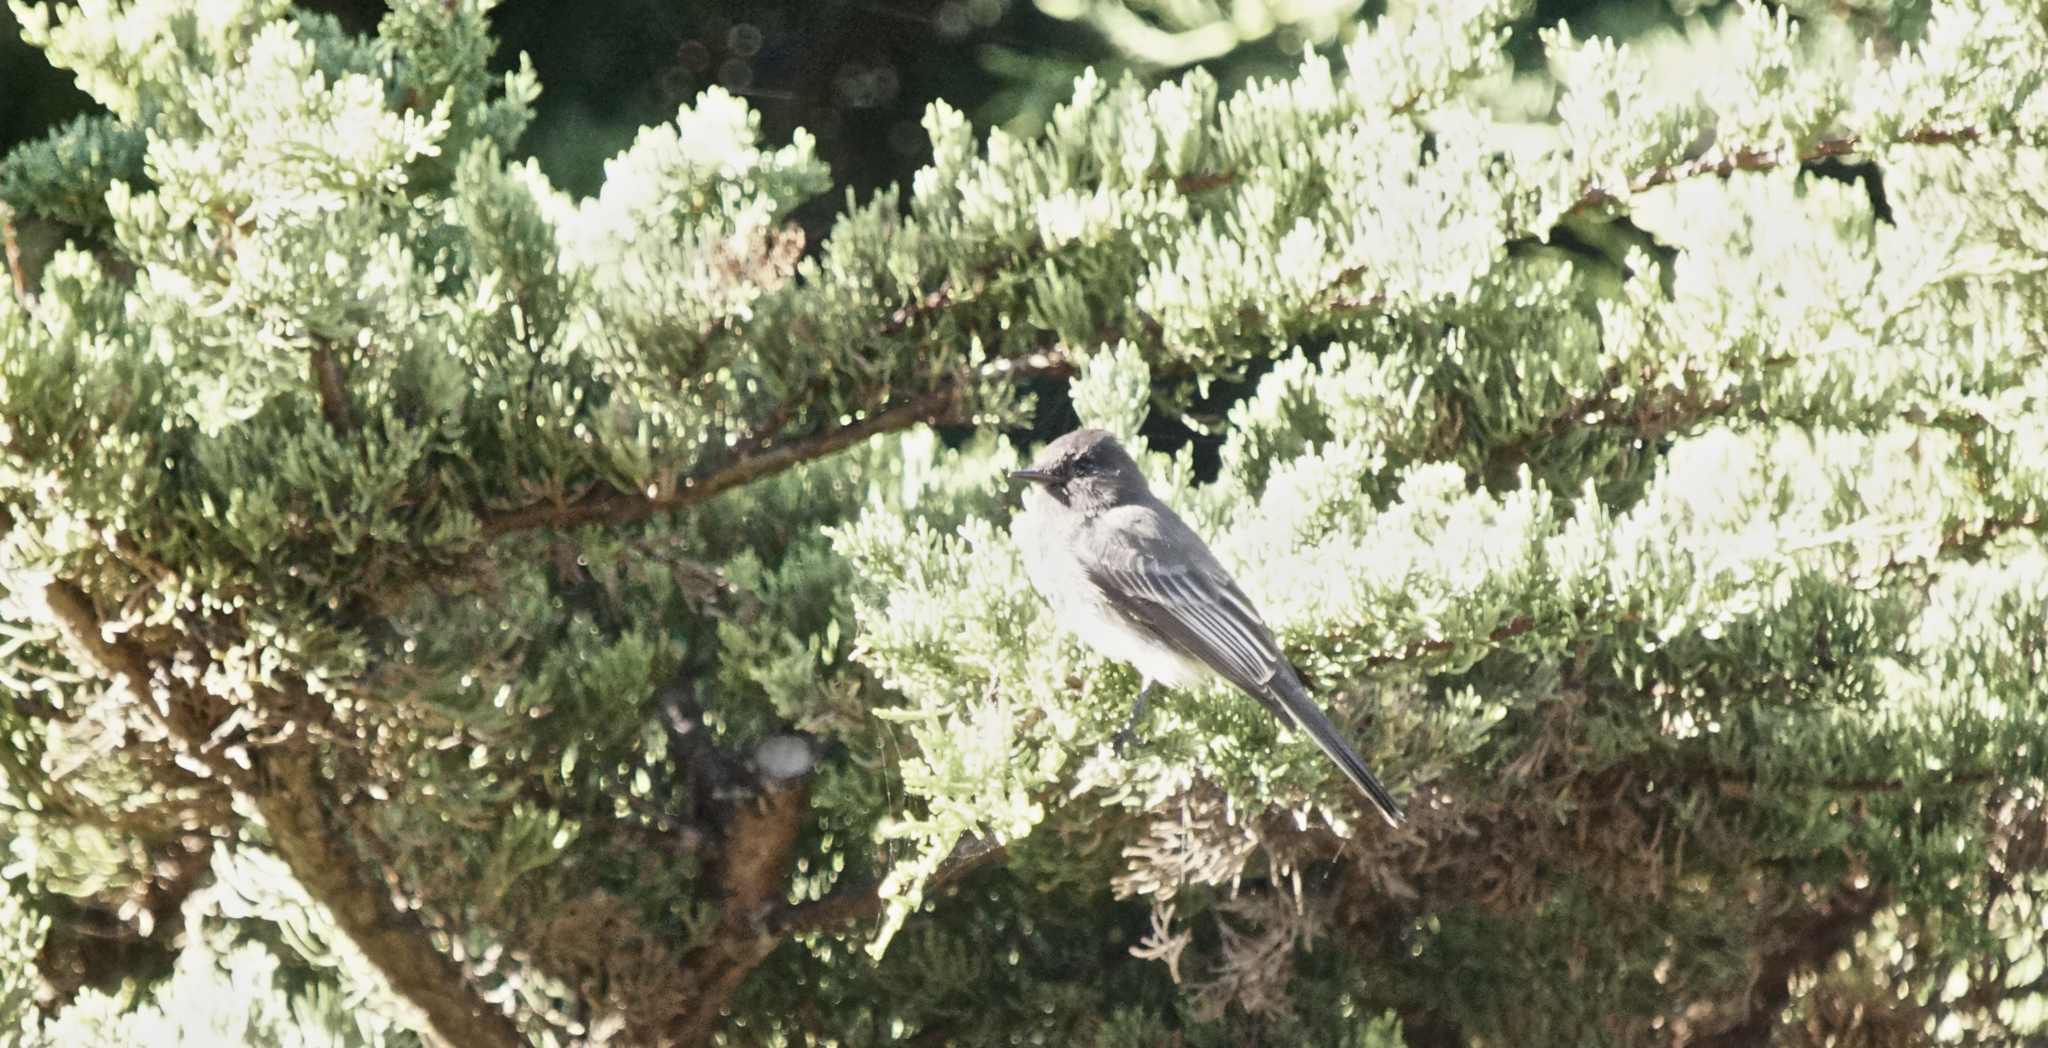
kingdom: Animalia
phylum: Chordata
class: Aves
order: Passeriformes
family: Tyrannidae
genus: Sayornis
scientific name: Sayornis nigricans
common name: Black phoebe
